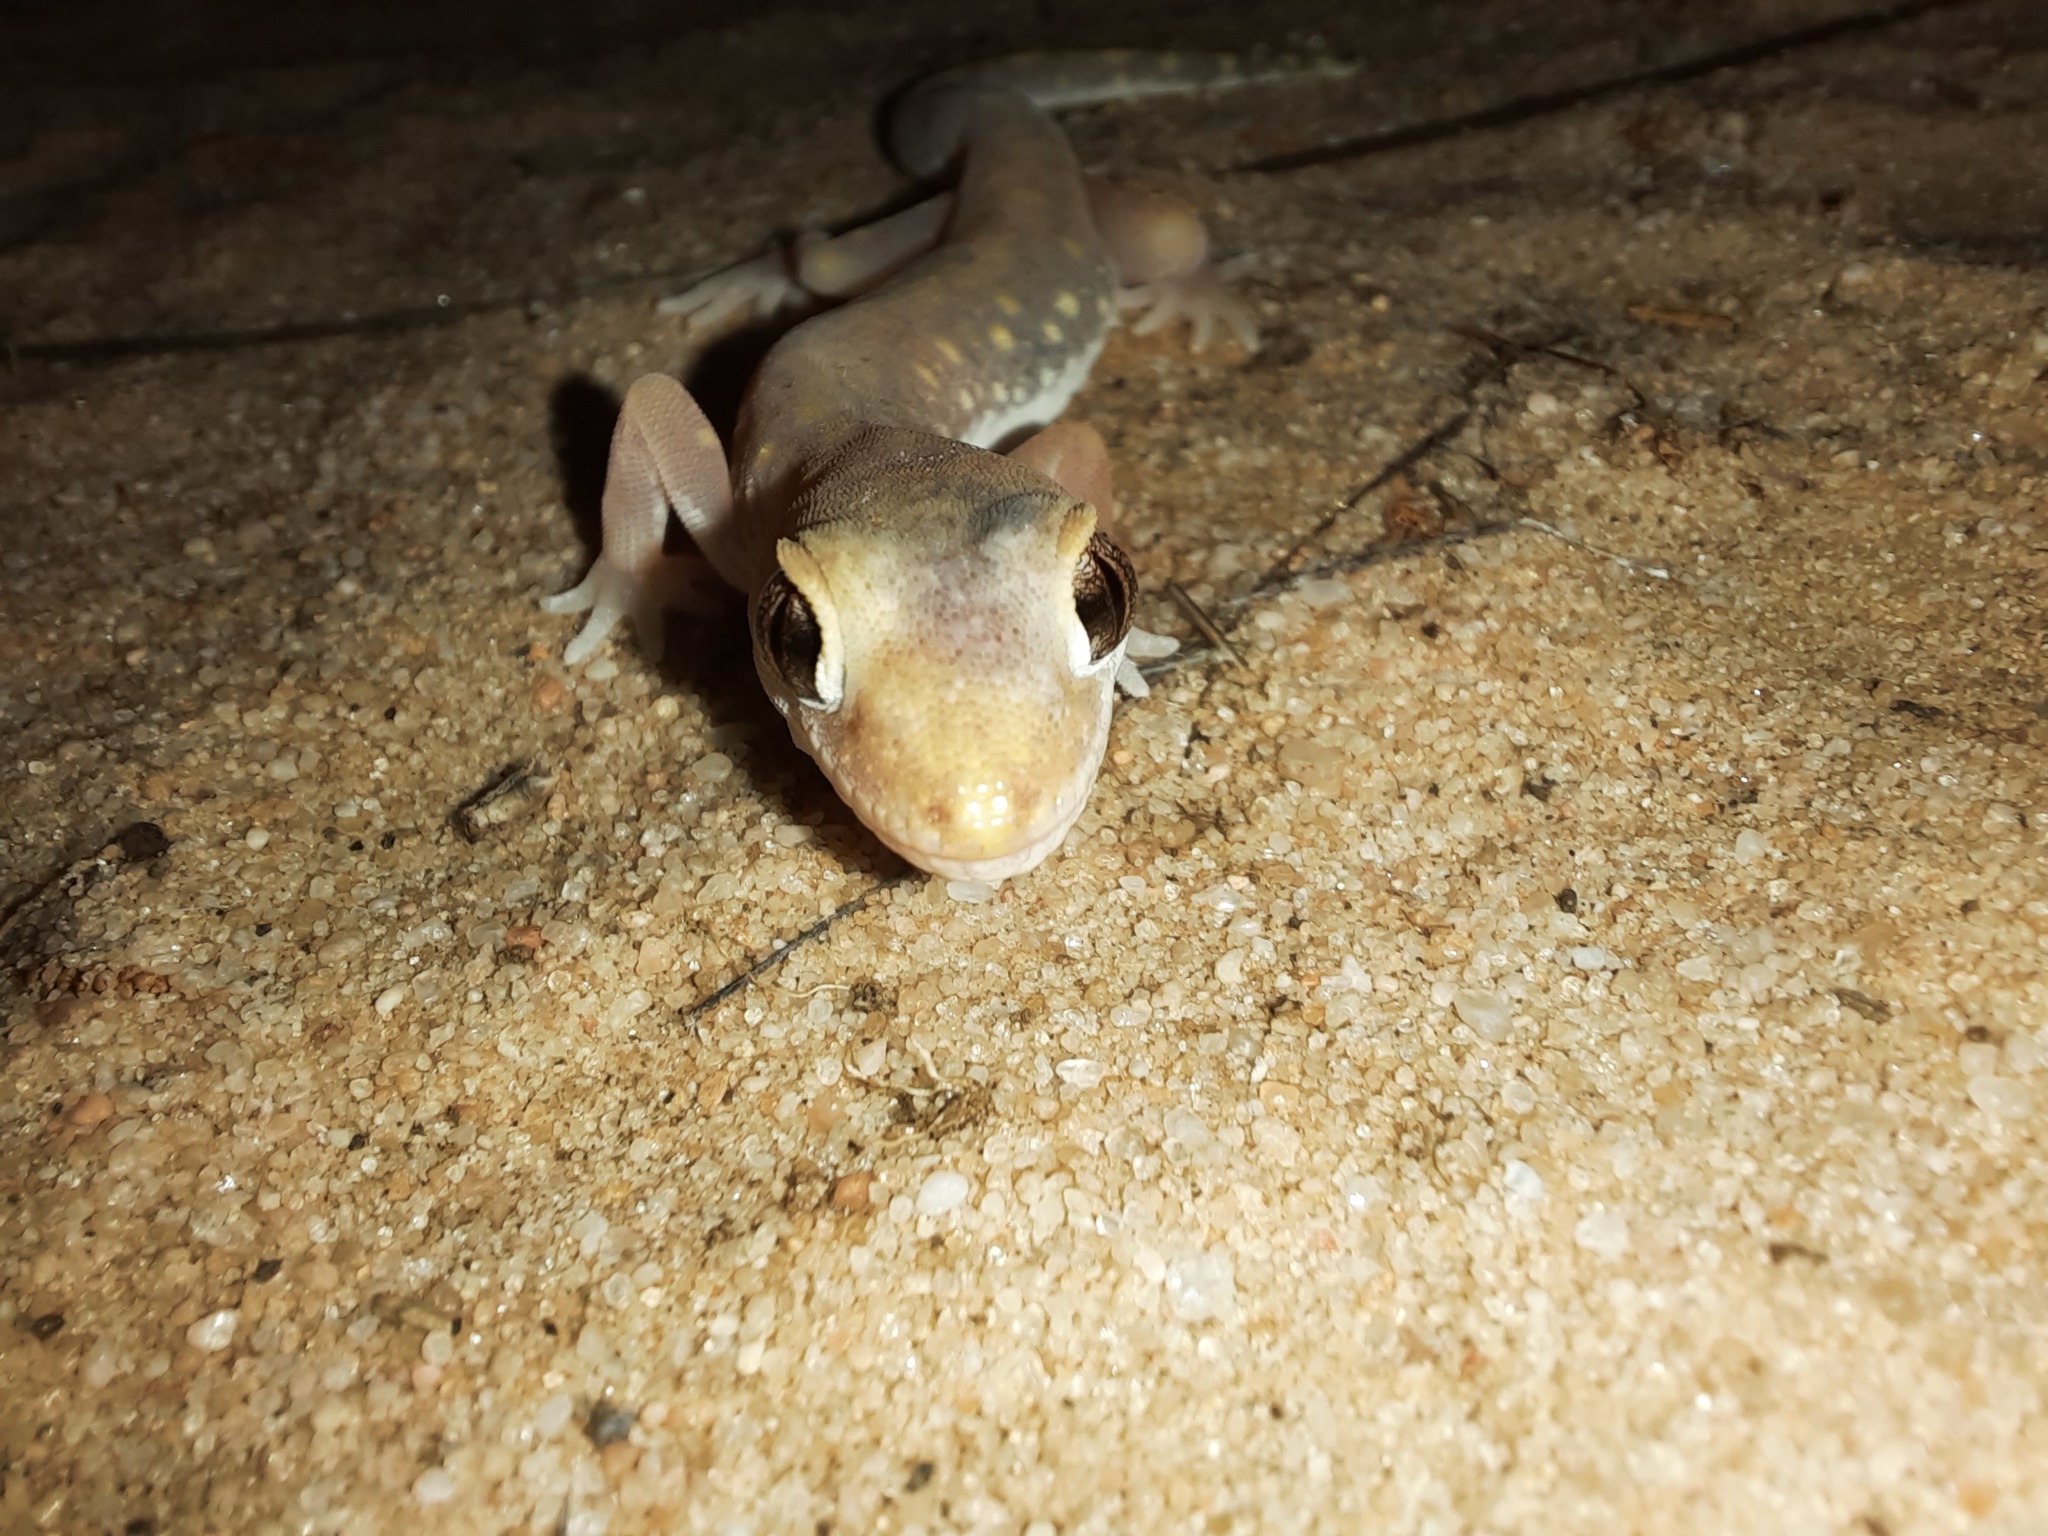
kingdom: Animalia
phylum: Chordata
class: Squamata
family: Diplodactylidae
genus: Lucasium
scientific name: Lucasium damaeum
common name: Beaded gecko
